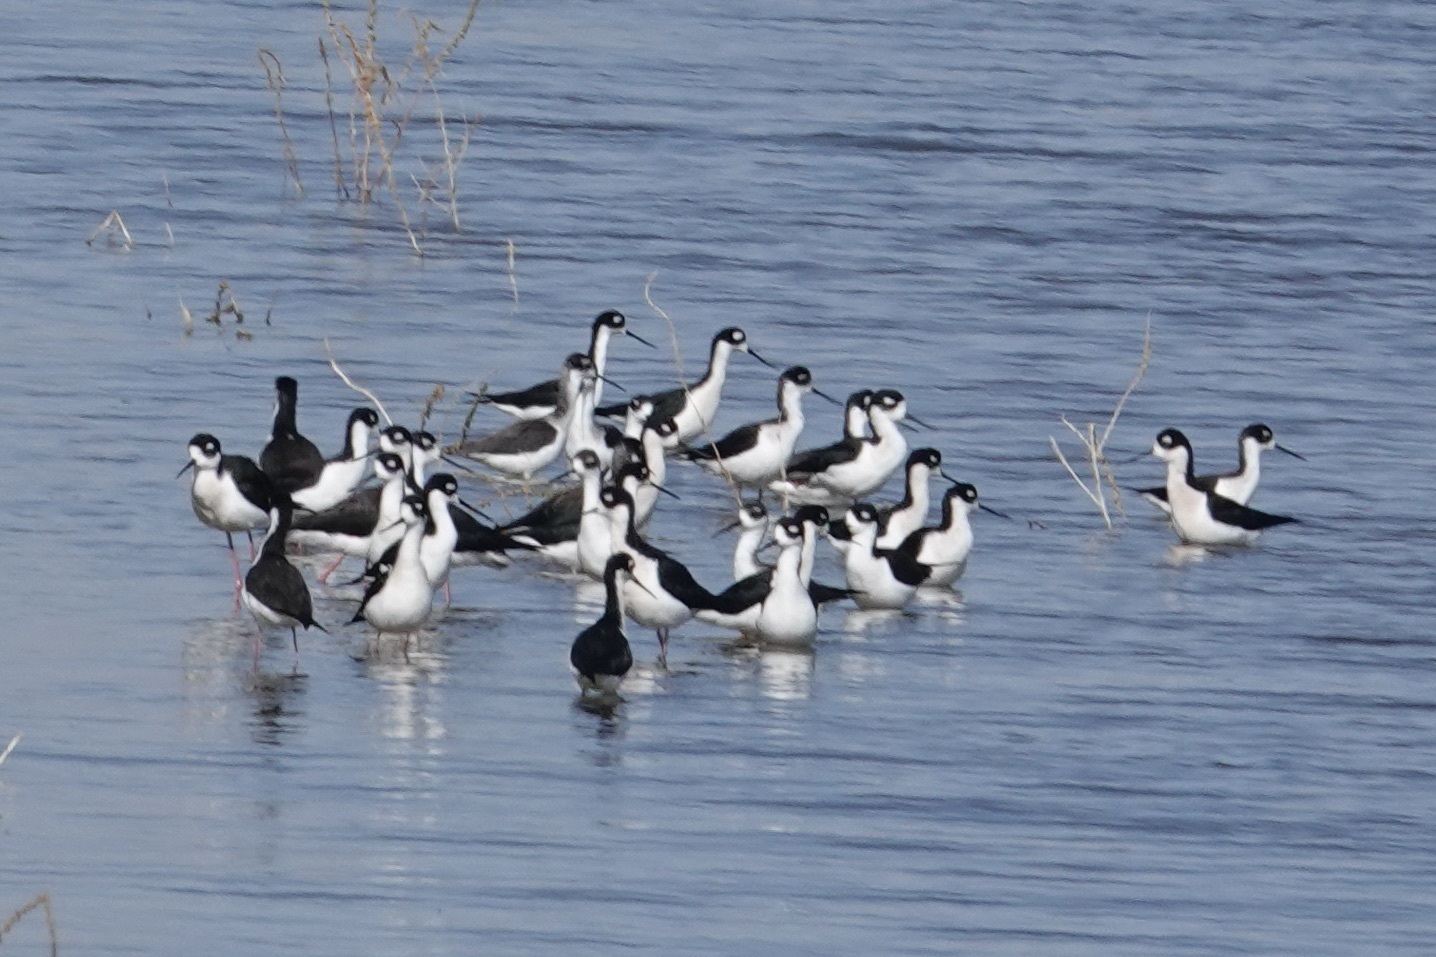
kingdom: Animalia
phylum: Chordata
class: Aves
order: Charadriiformes
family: Recurvirostridae
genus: Himantopus
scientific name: Himantopus mexicanus
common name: Black-necked stilt
